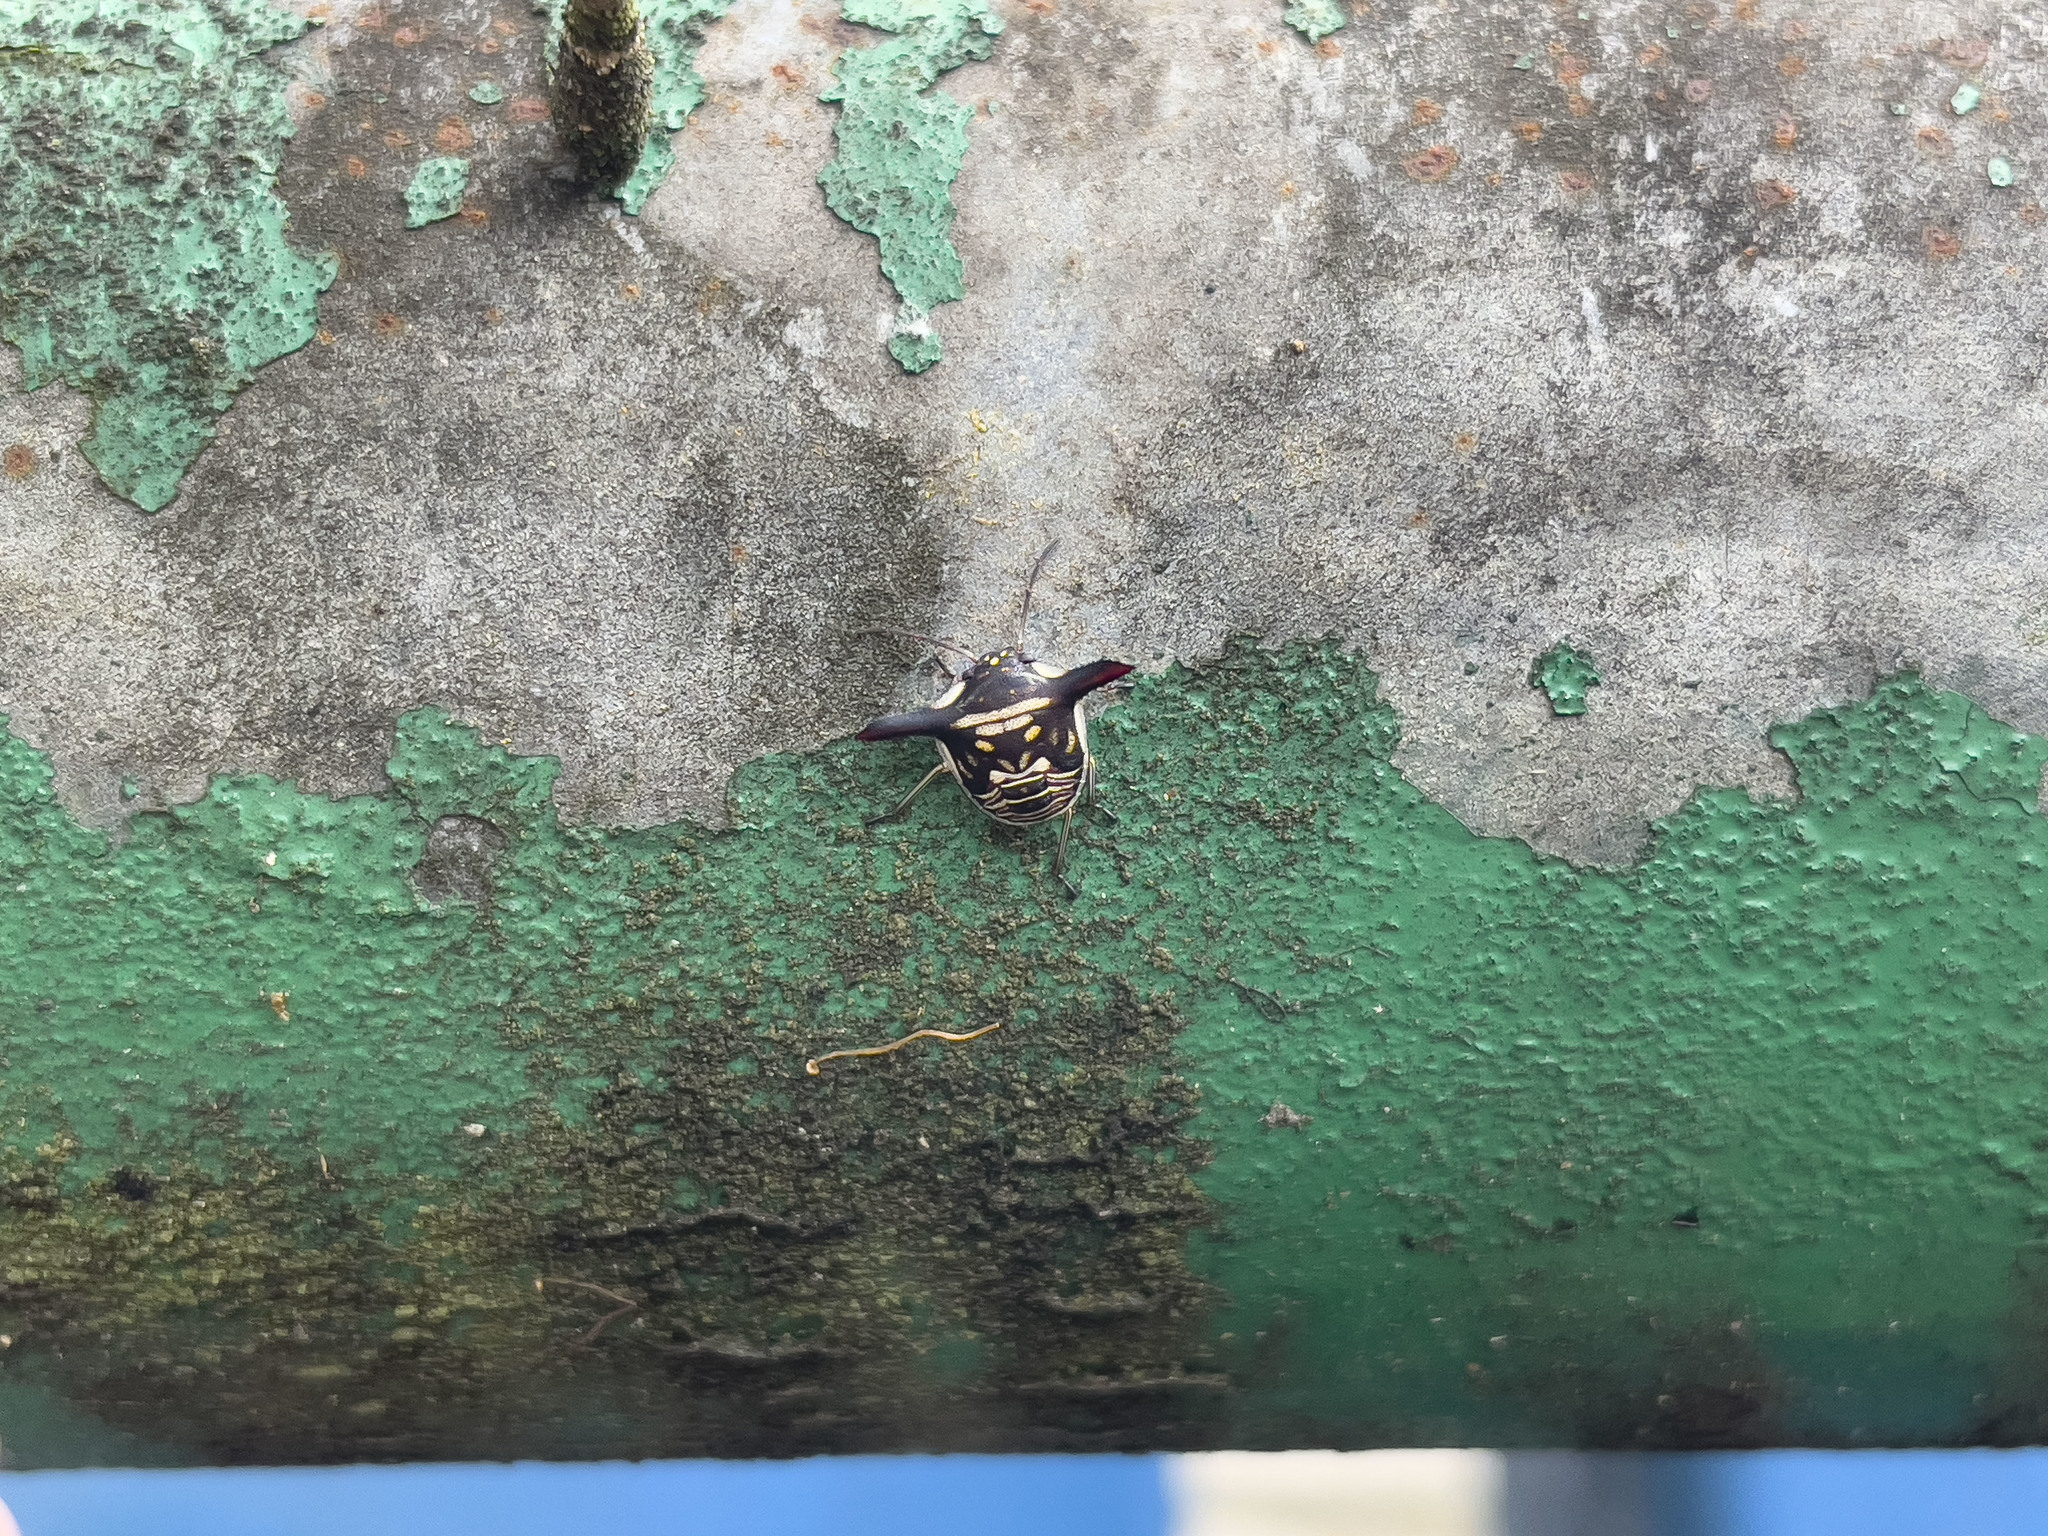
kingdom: Animalia
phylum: Arthropoda
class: Insecta
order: Hemiptera
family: Pentatomidae
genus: Alcimocoris
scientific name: Alcimocoris
